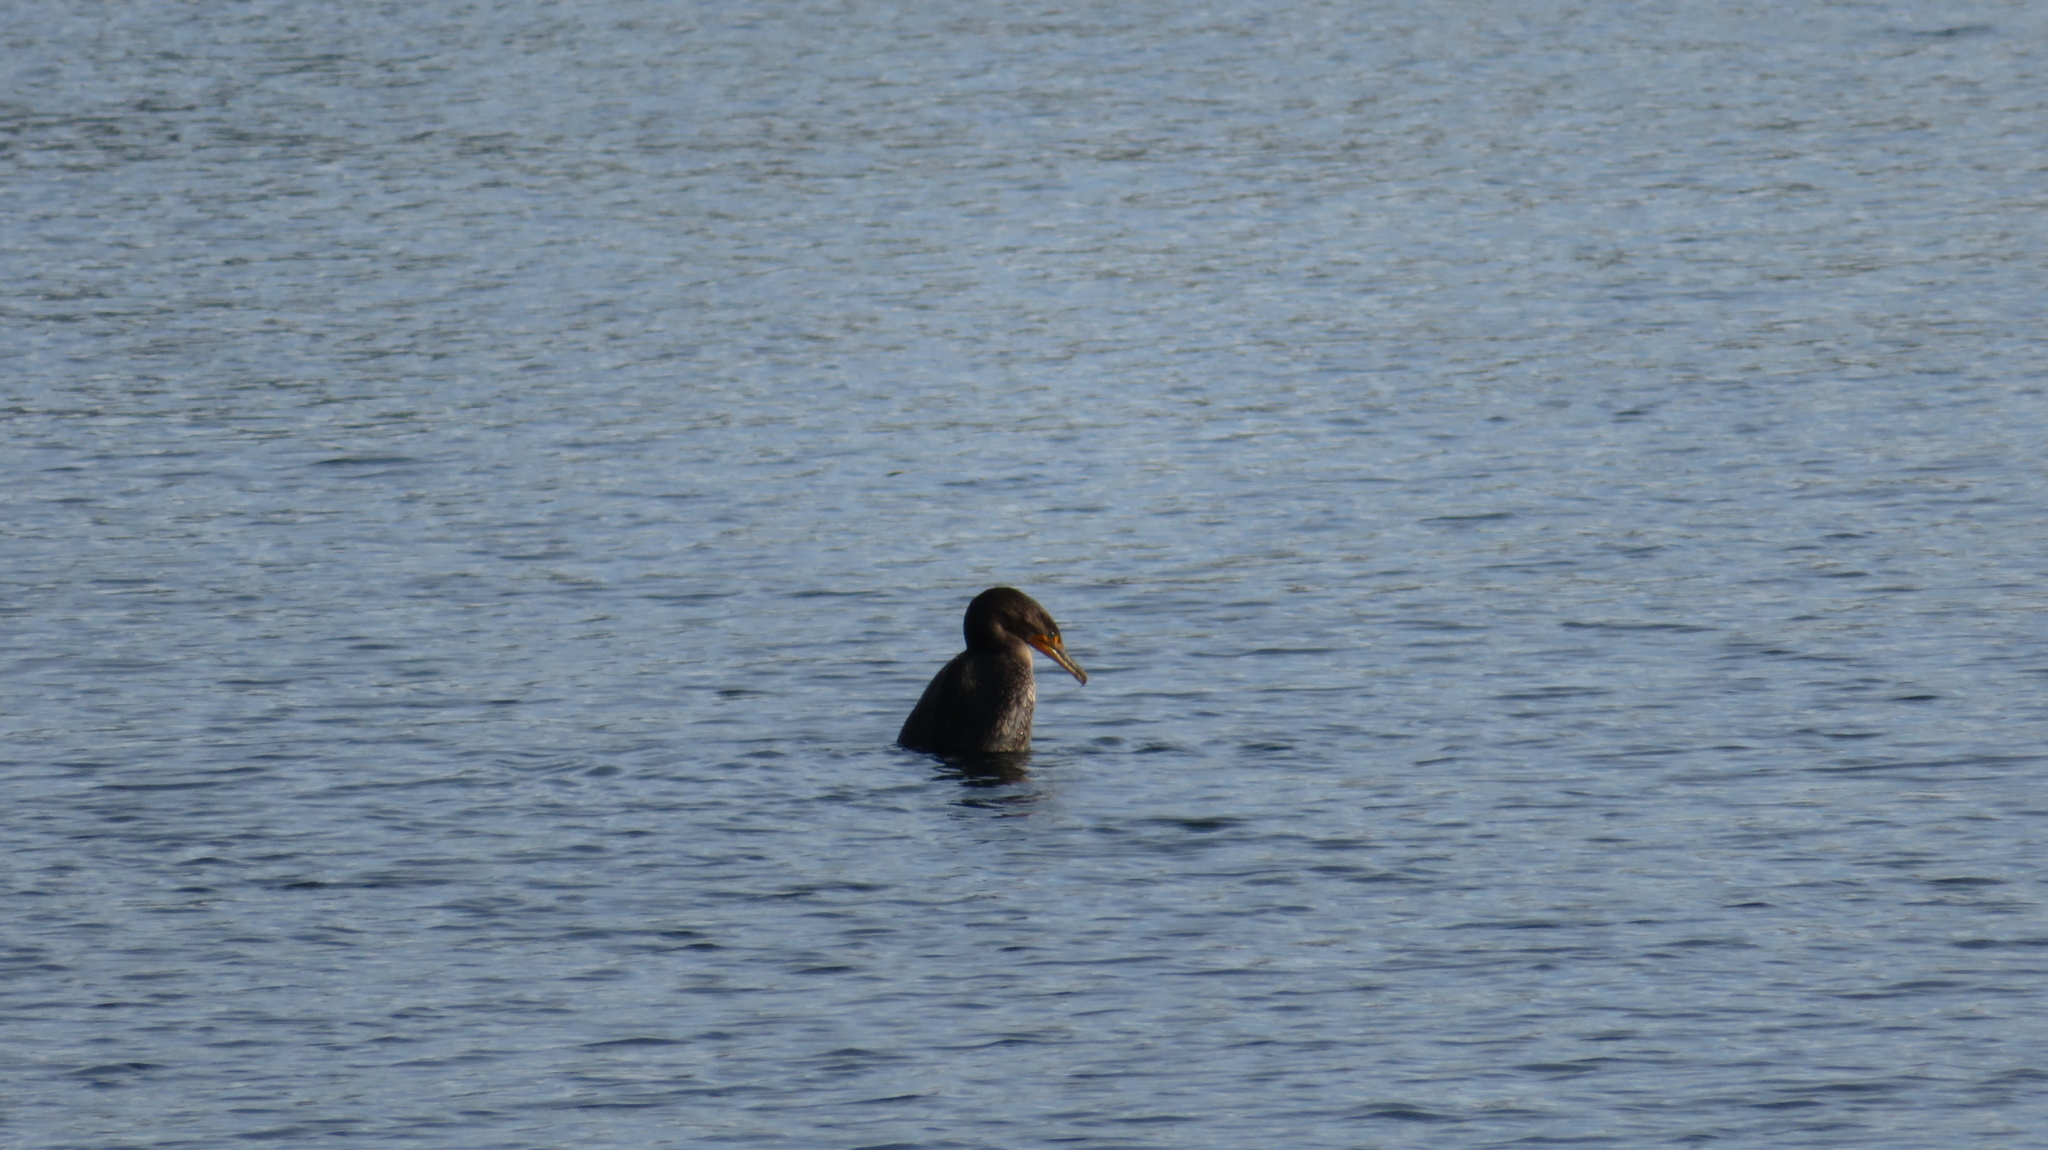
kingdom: Animalia
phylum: Chordata
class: Aves
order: Suliformes
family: Phalacrocoracidae
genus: Phalacrocorax
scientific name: Phalacrocorax auritus
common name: Double-crested cormorant
